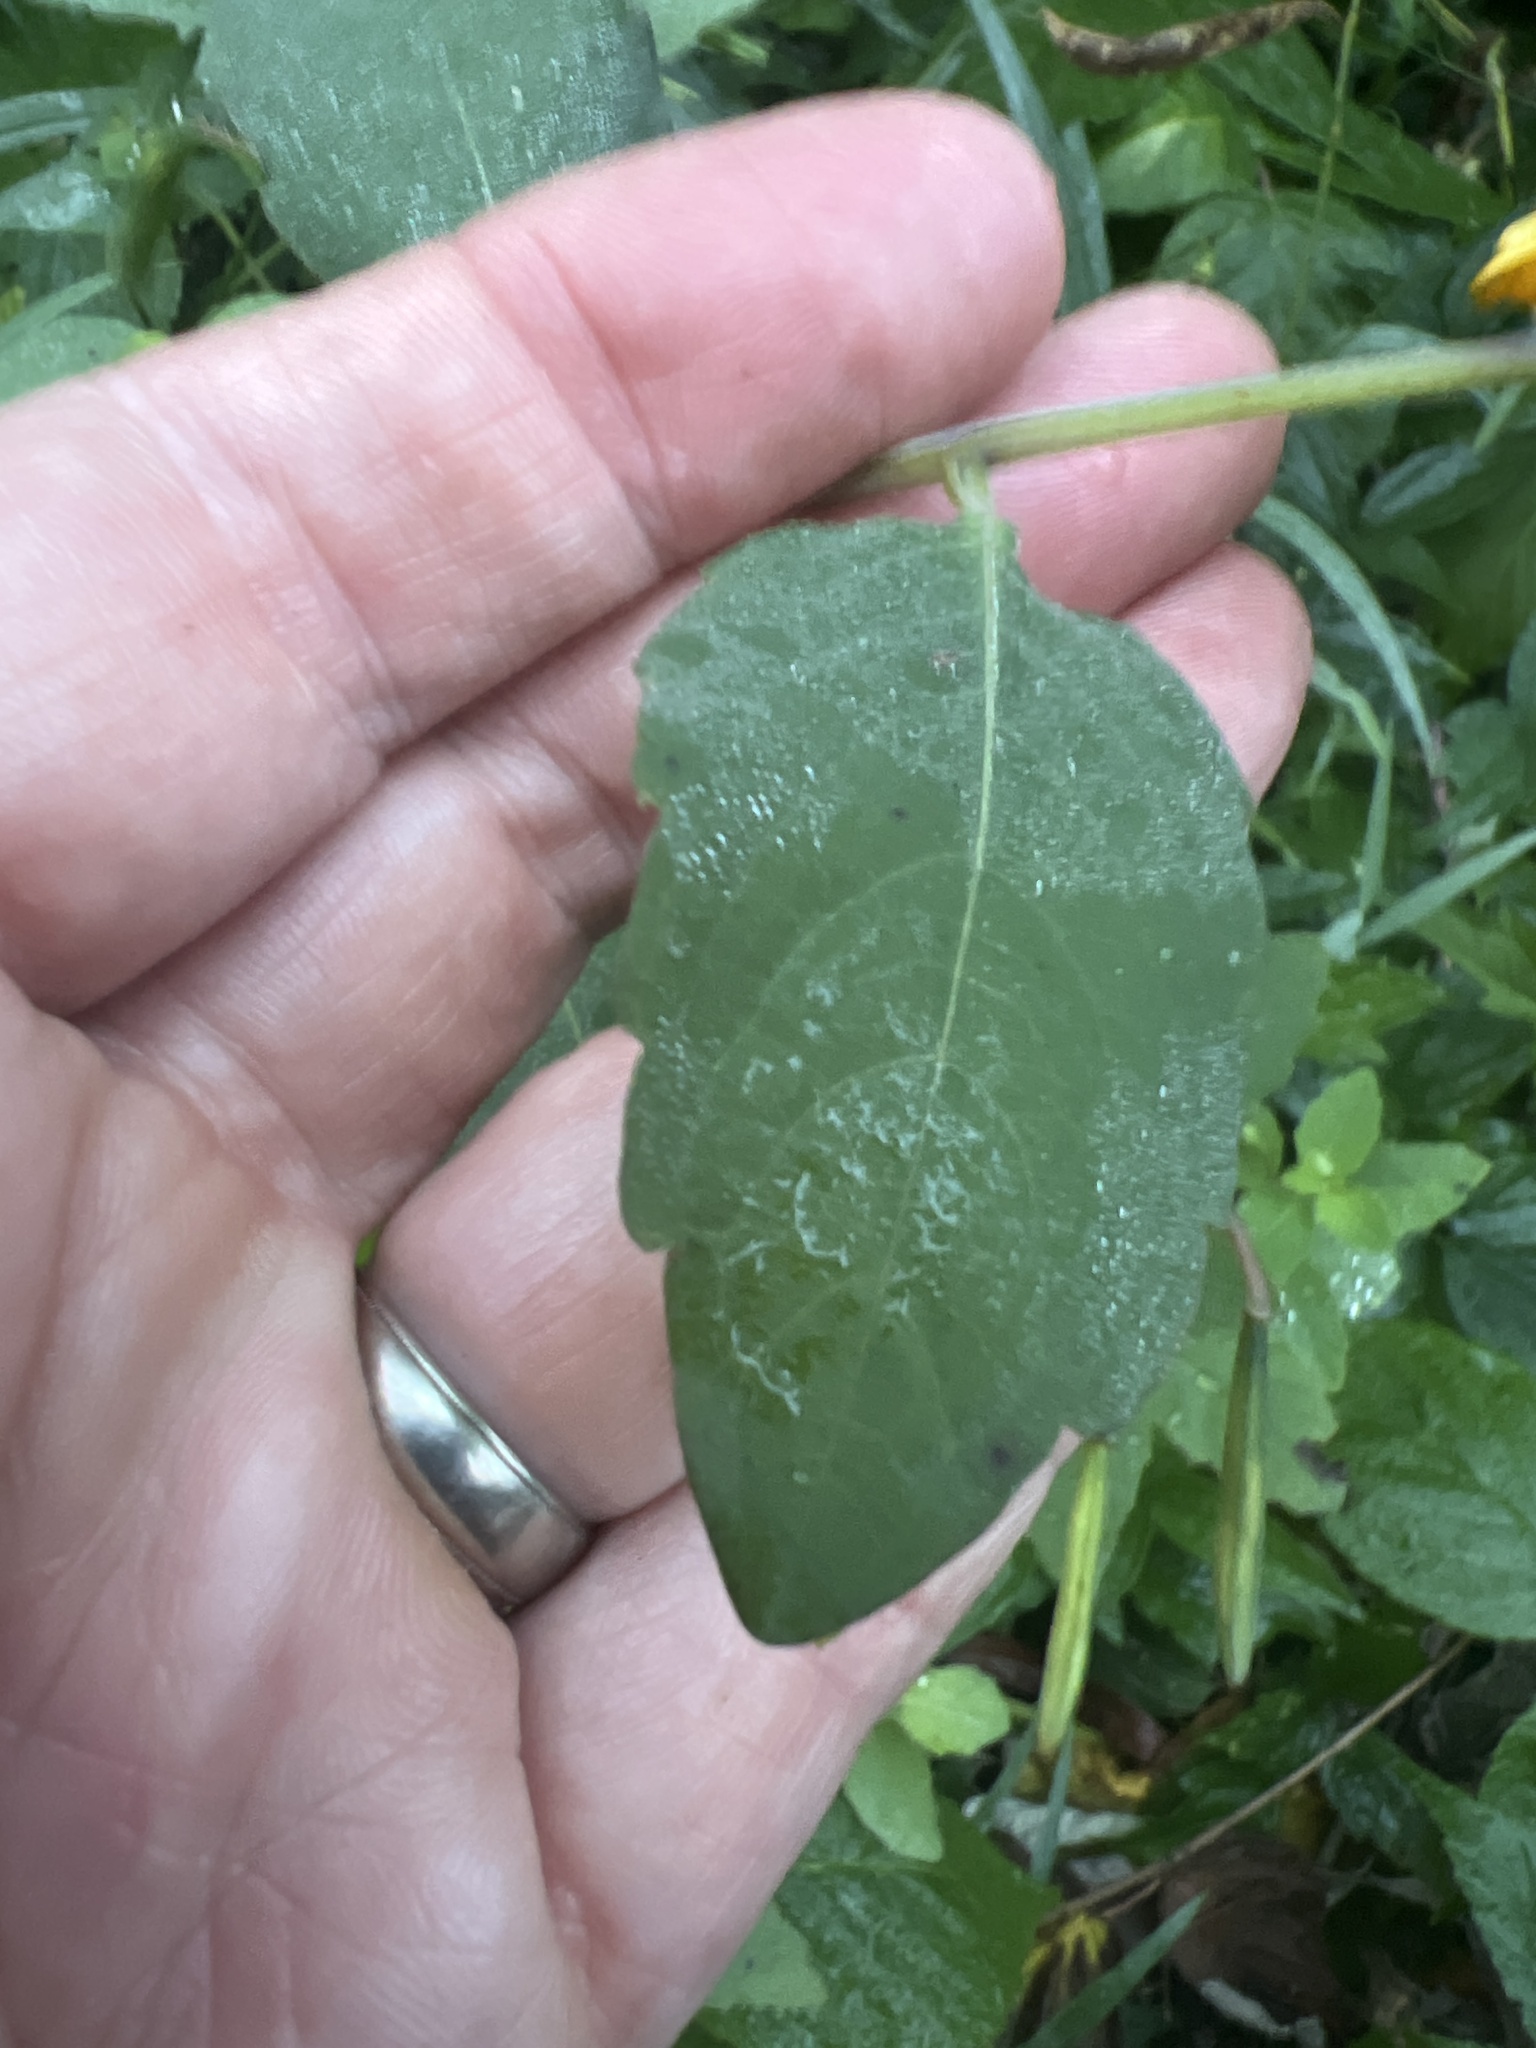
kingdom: Plantae
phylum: Tracheophyta
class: Magnoliopsida
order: Ericales
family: Balsaminaceae
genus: Impatiens
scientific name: Impatiens capensis
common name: Orange balsam
